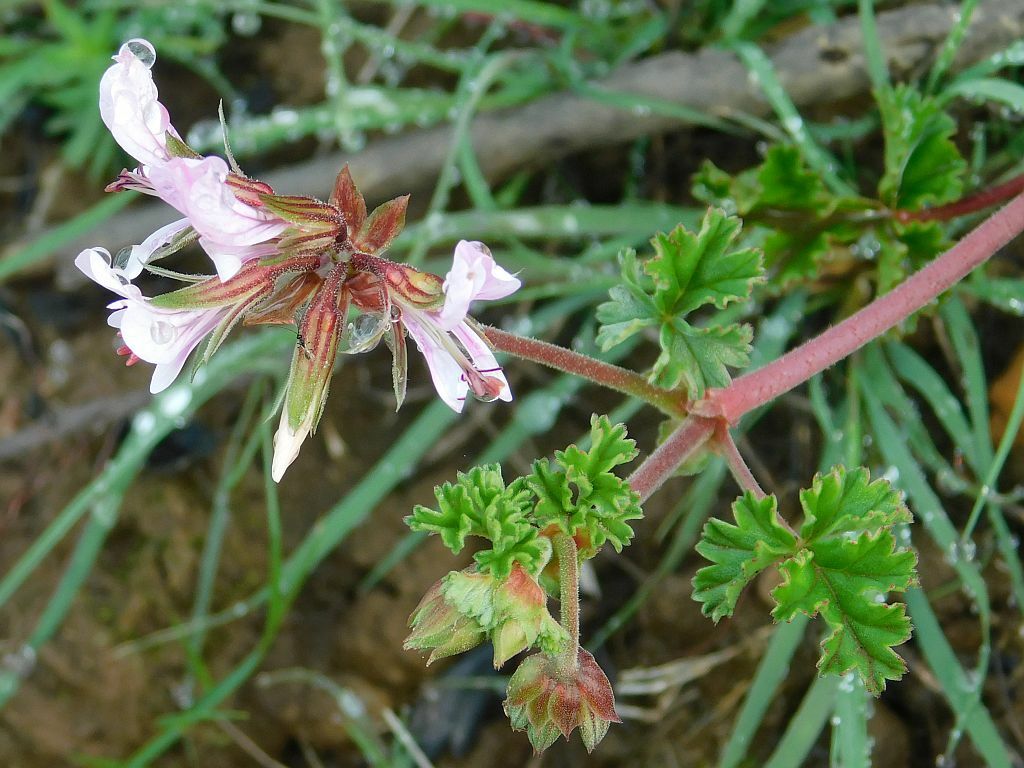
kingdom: Plantae
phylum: Tracheophyta
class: Magnoliopsida
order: Geraniales
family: Geraniaceae
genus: Pelargonium
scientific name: Pelargonium candicans
